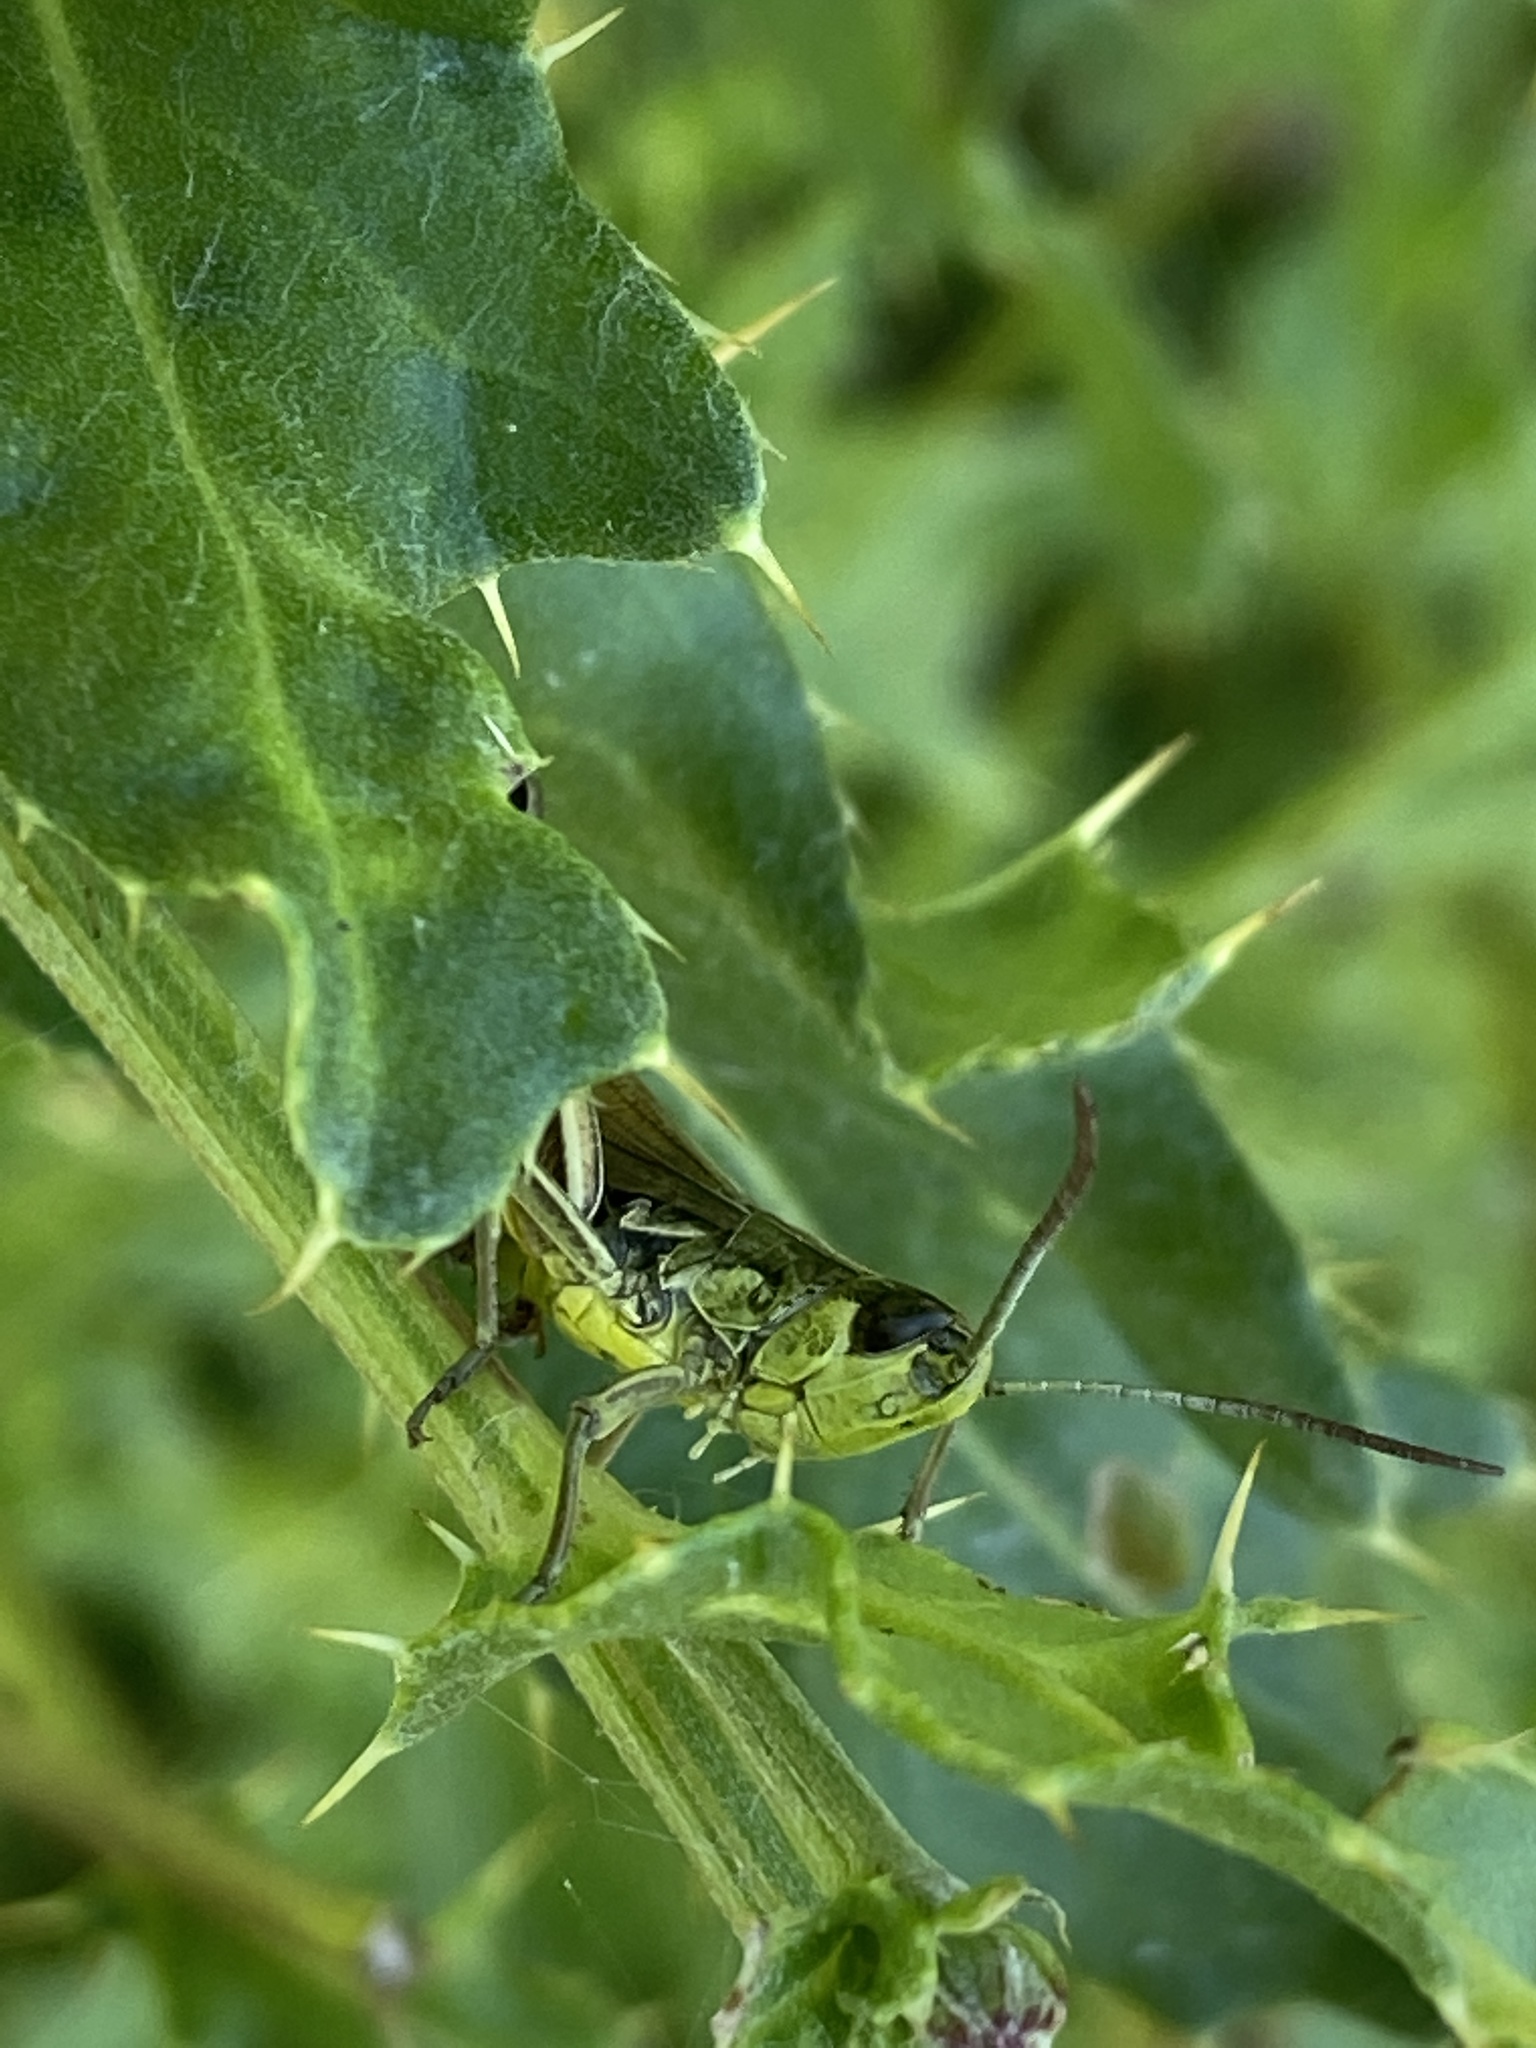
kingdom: Animalia
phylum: Arthropoda
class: Insecta
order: Orthoptera
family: Acrididae
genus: Pseudochorthippus
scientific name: Pseudochorthippus parallelus
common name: Meadow grasshopper
